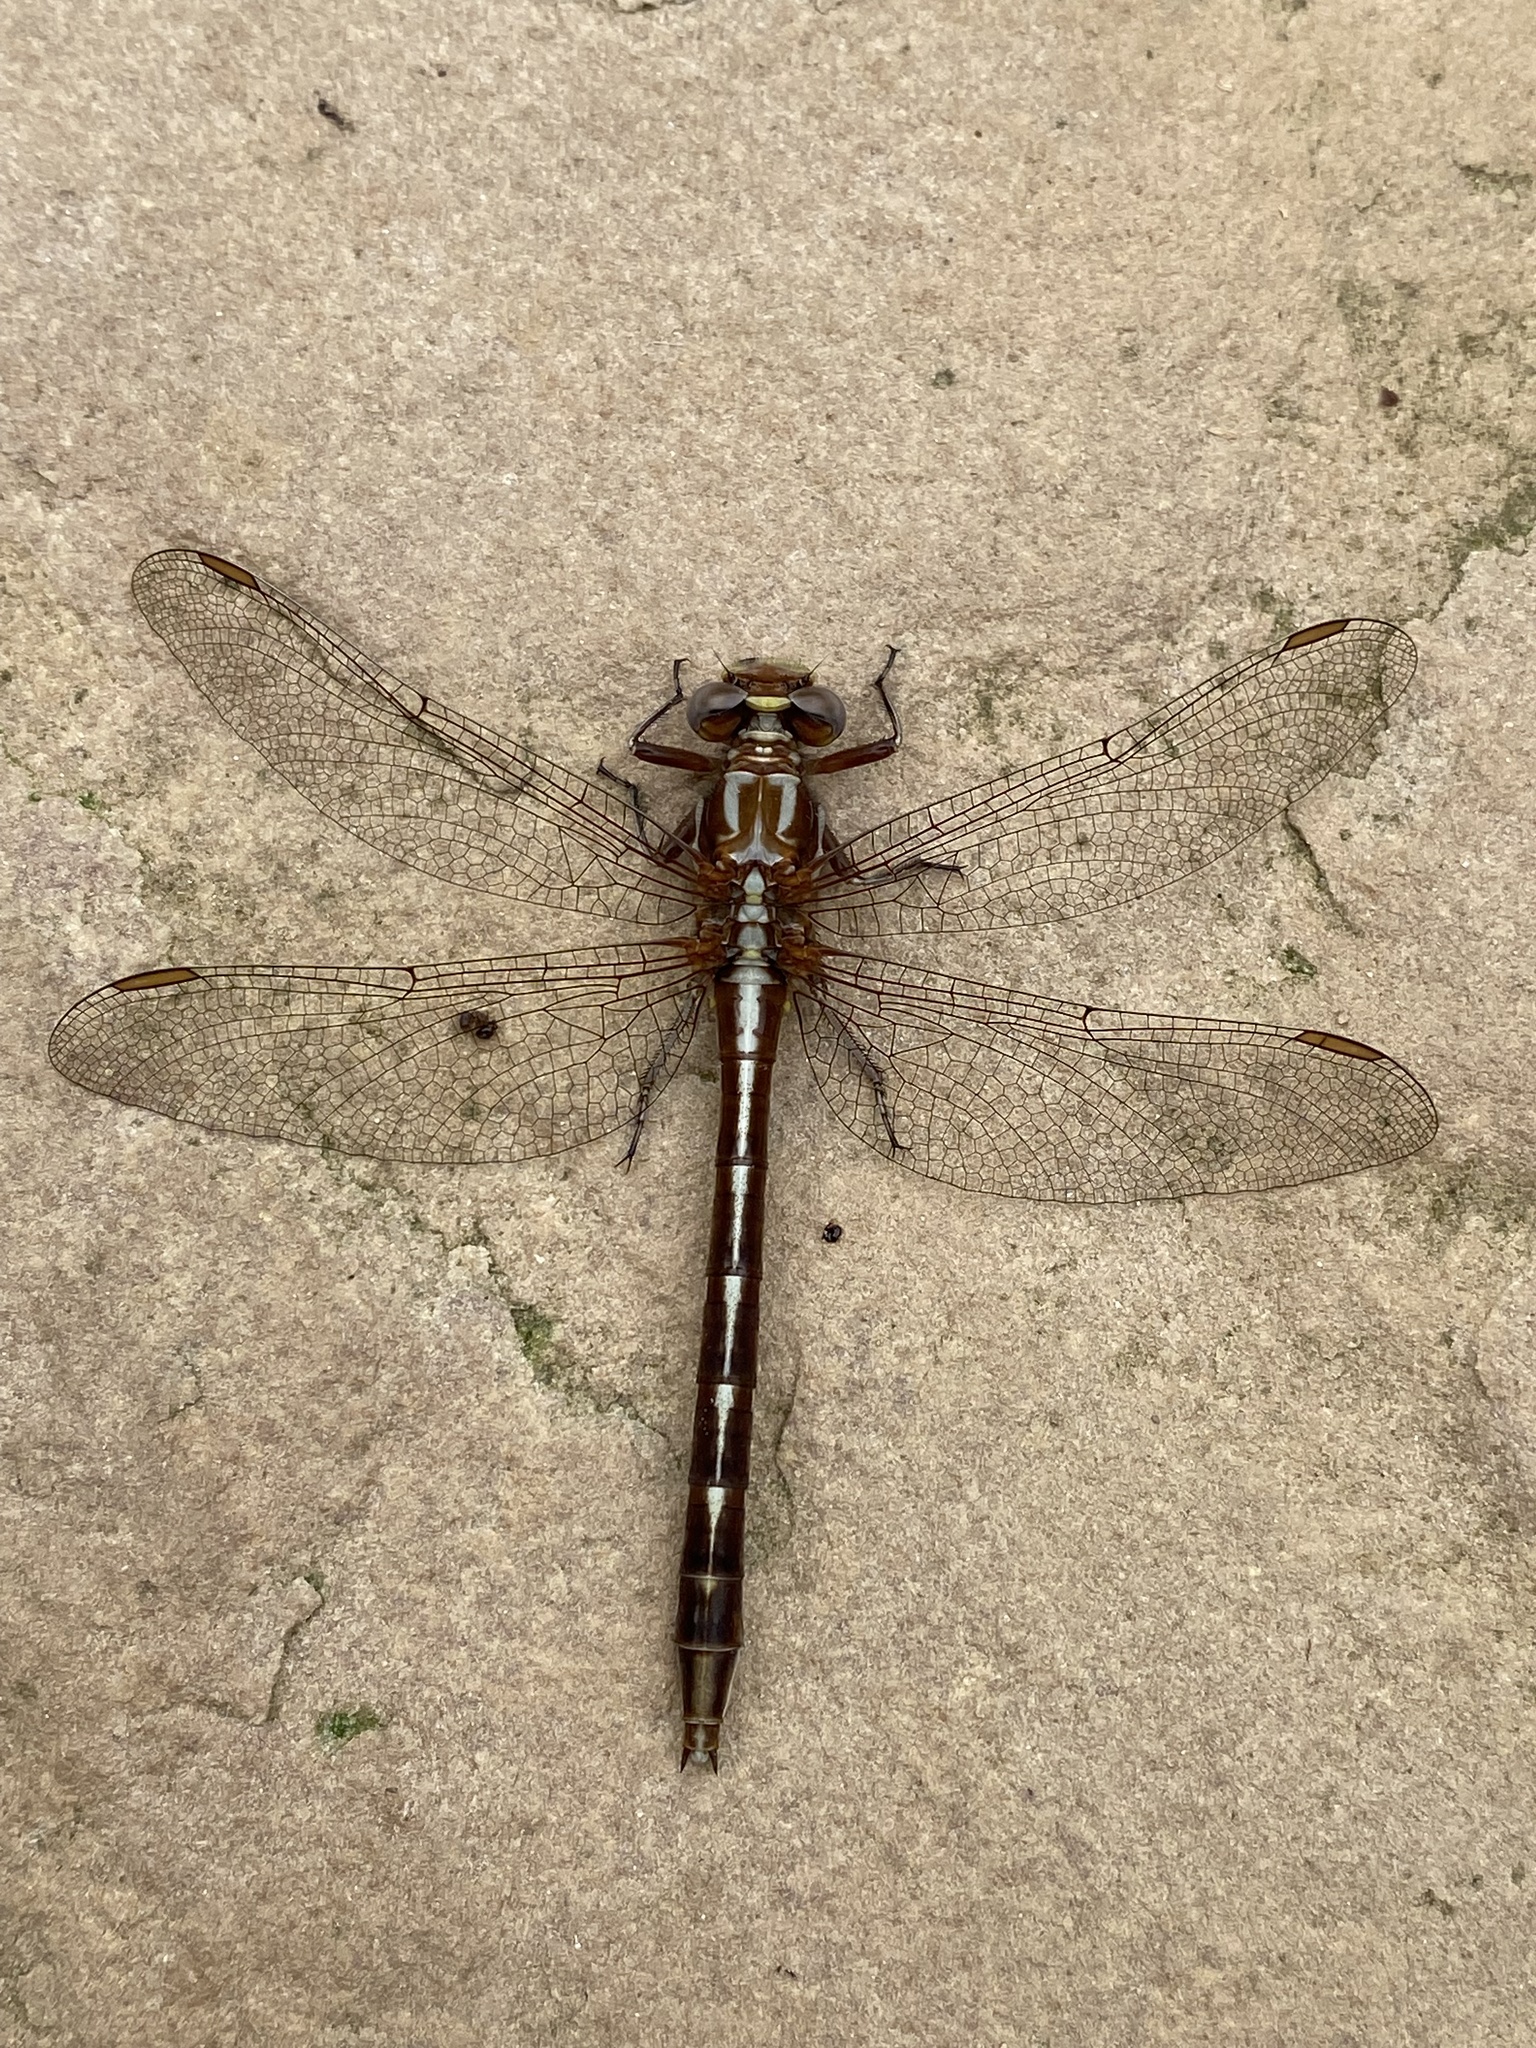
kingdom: Animalia
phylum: Arthropoda
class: Insecta
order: Odonata
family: Gomphidae
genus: Phanogomphus
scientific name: Phanogomphus lividus
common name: Ashy clubtail
